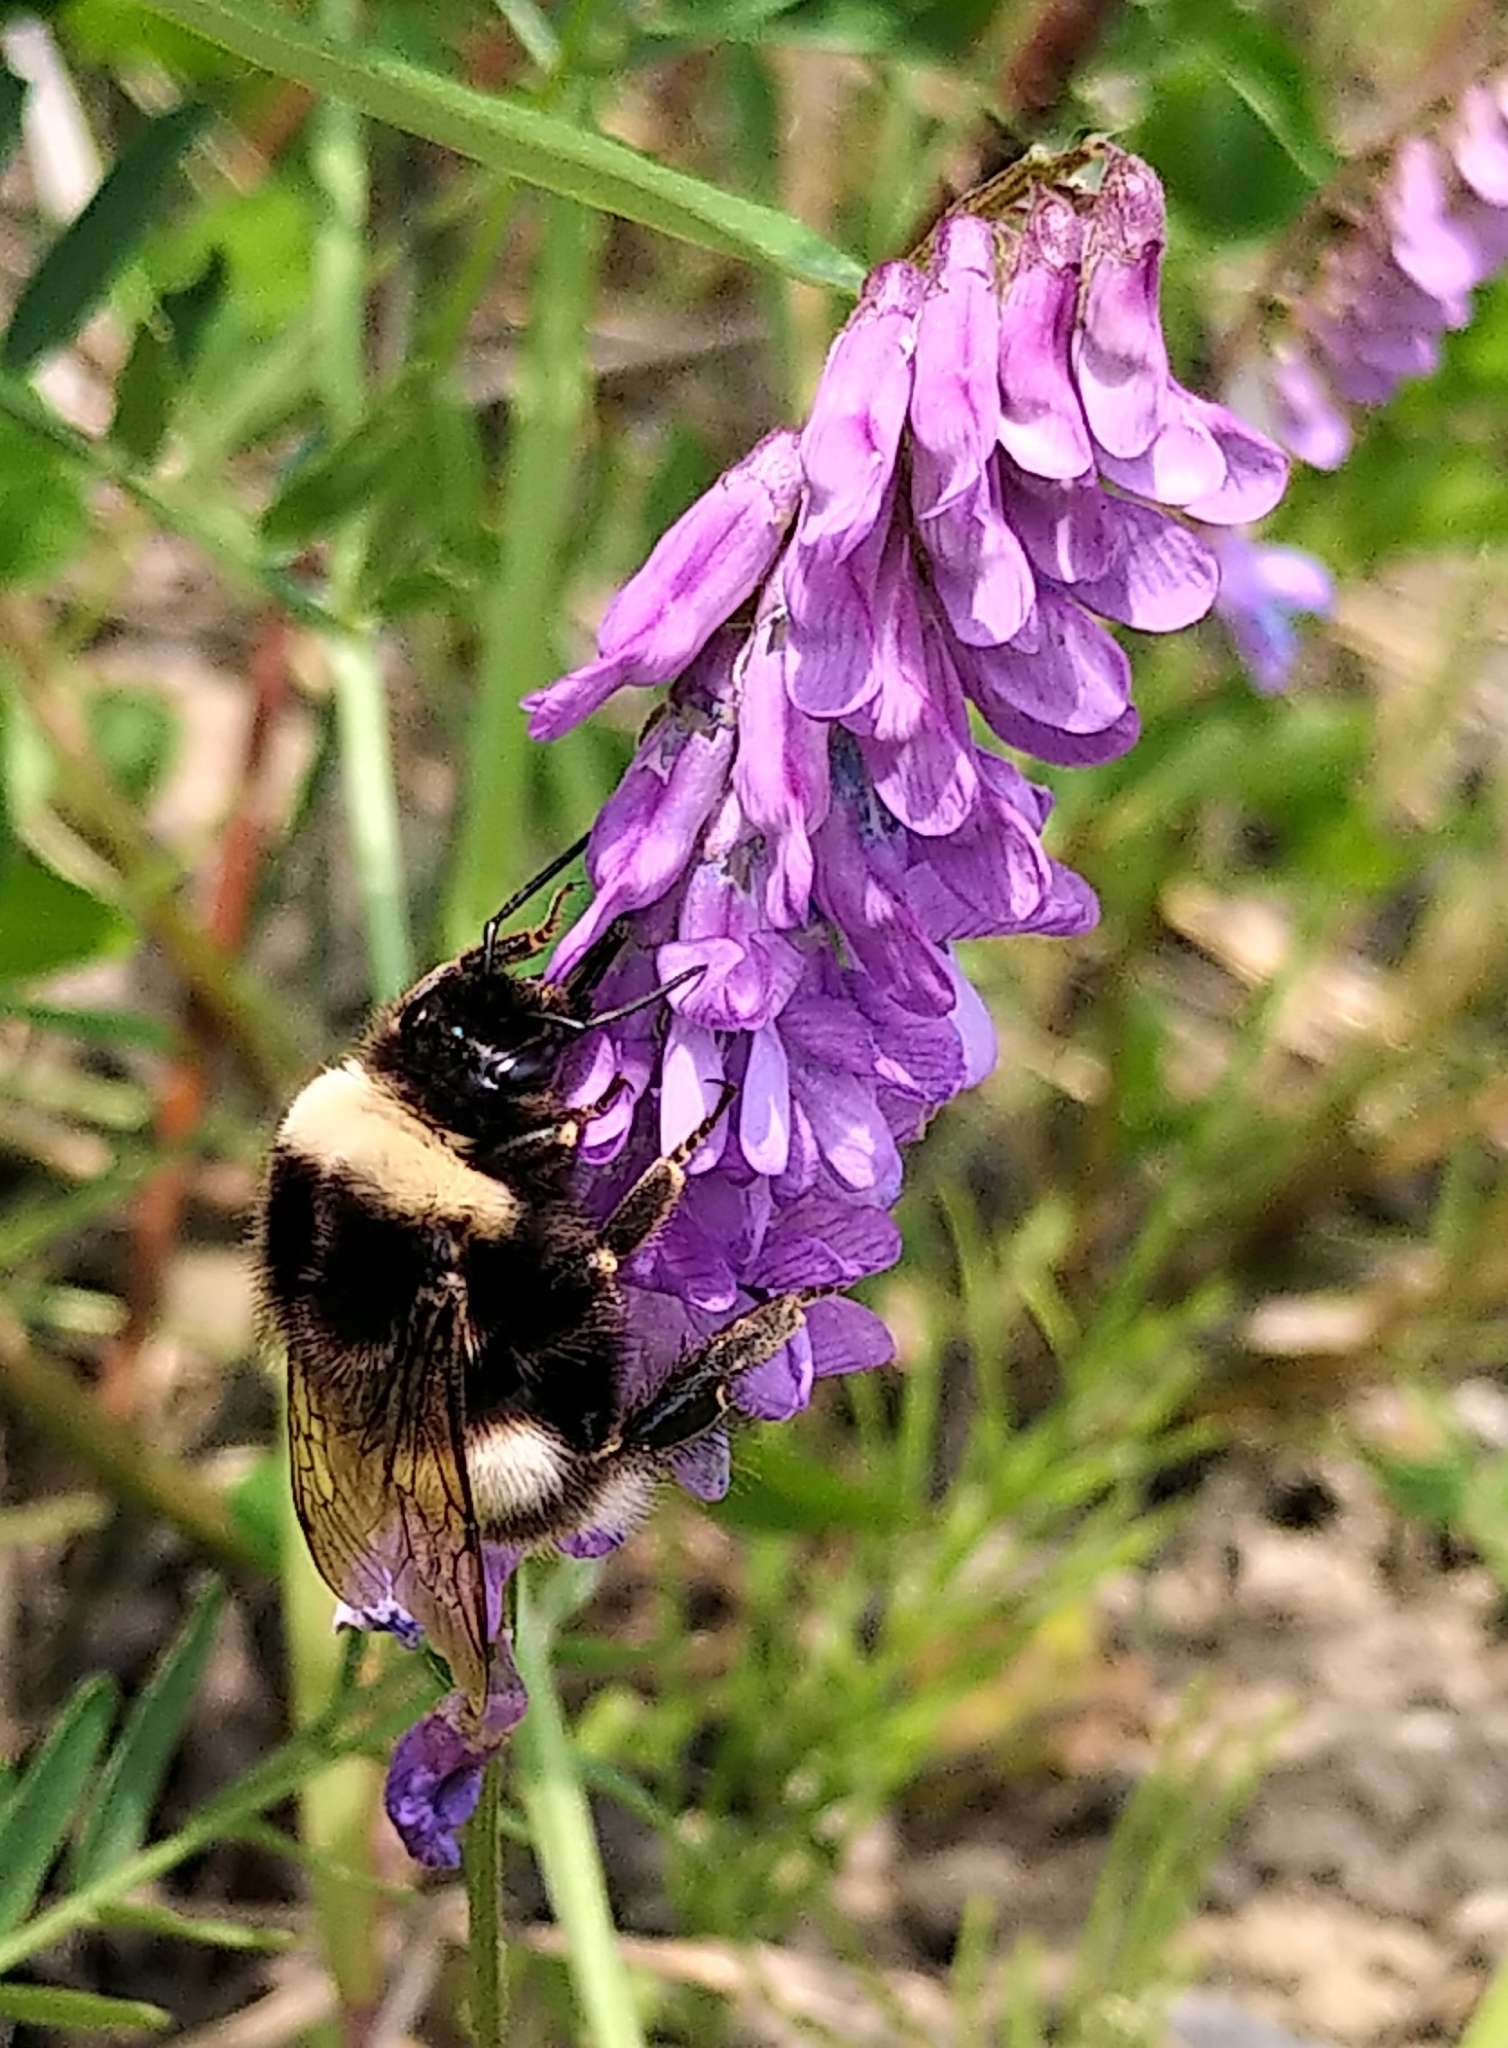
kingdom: Animalia
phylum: Arthropoda
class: Insecta
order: Hymenoptera
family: Apidae
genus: Bombus
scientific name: Bombus cryptarum
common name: Cryptic bumblebee
